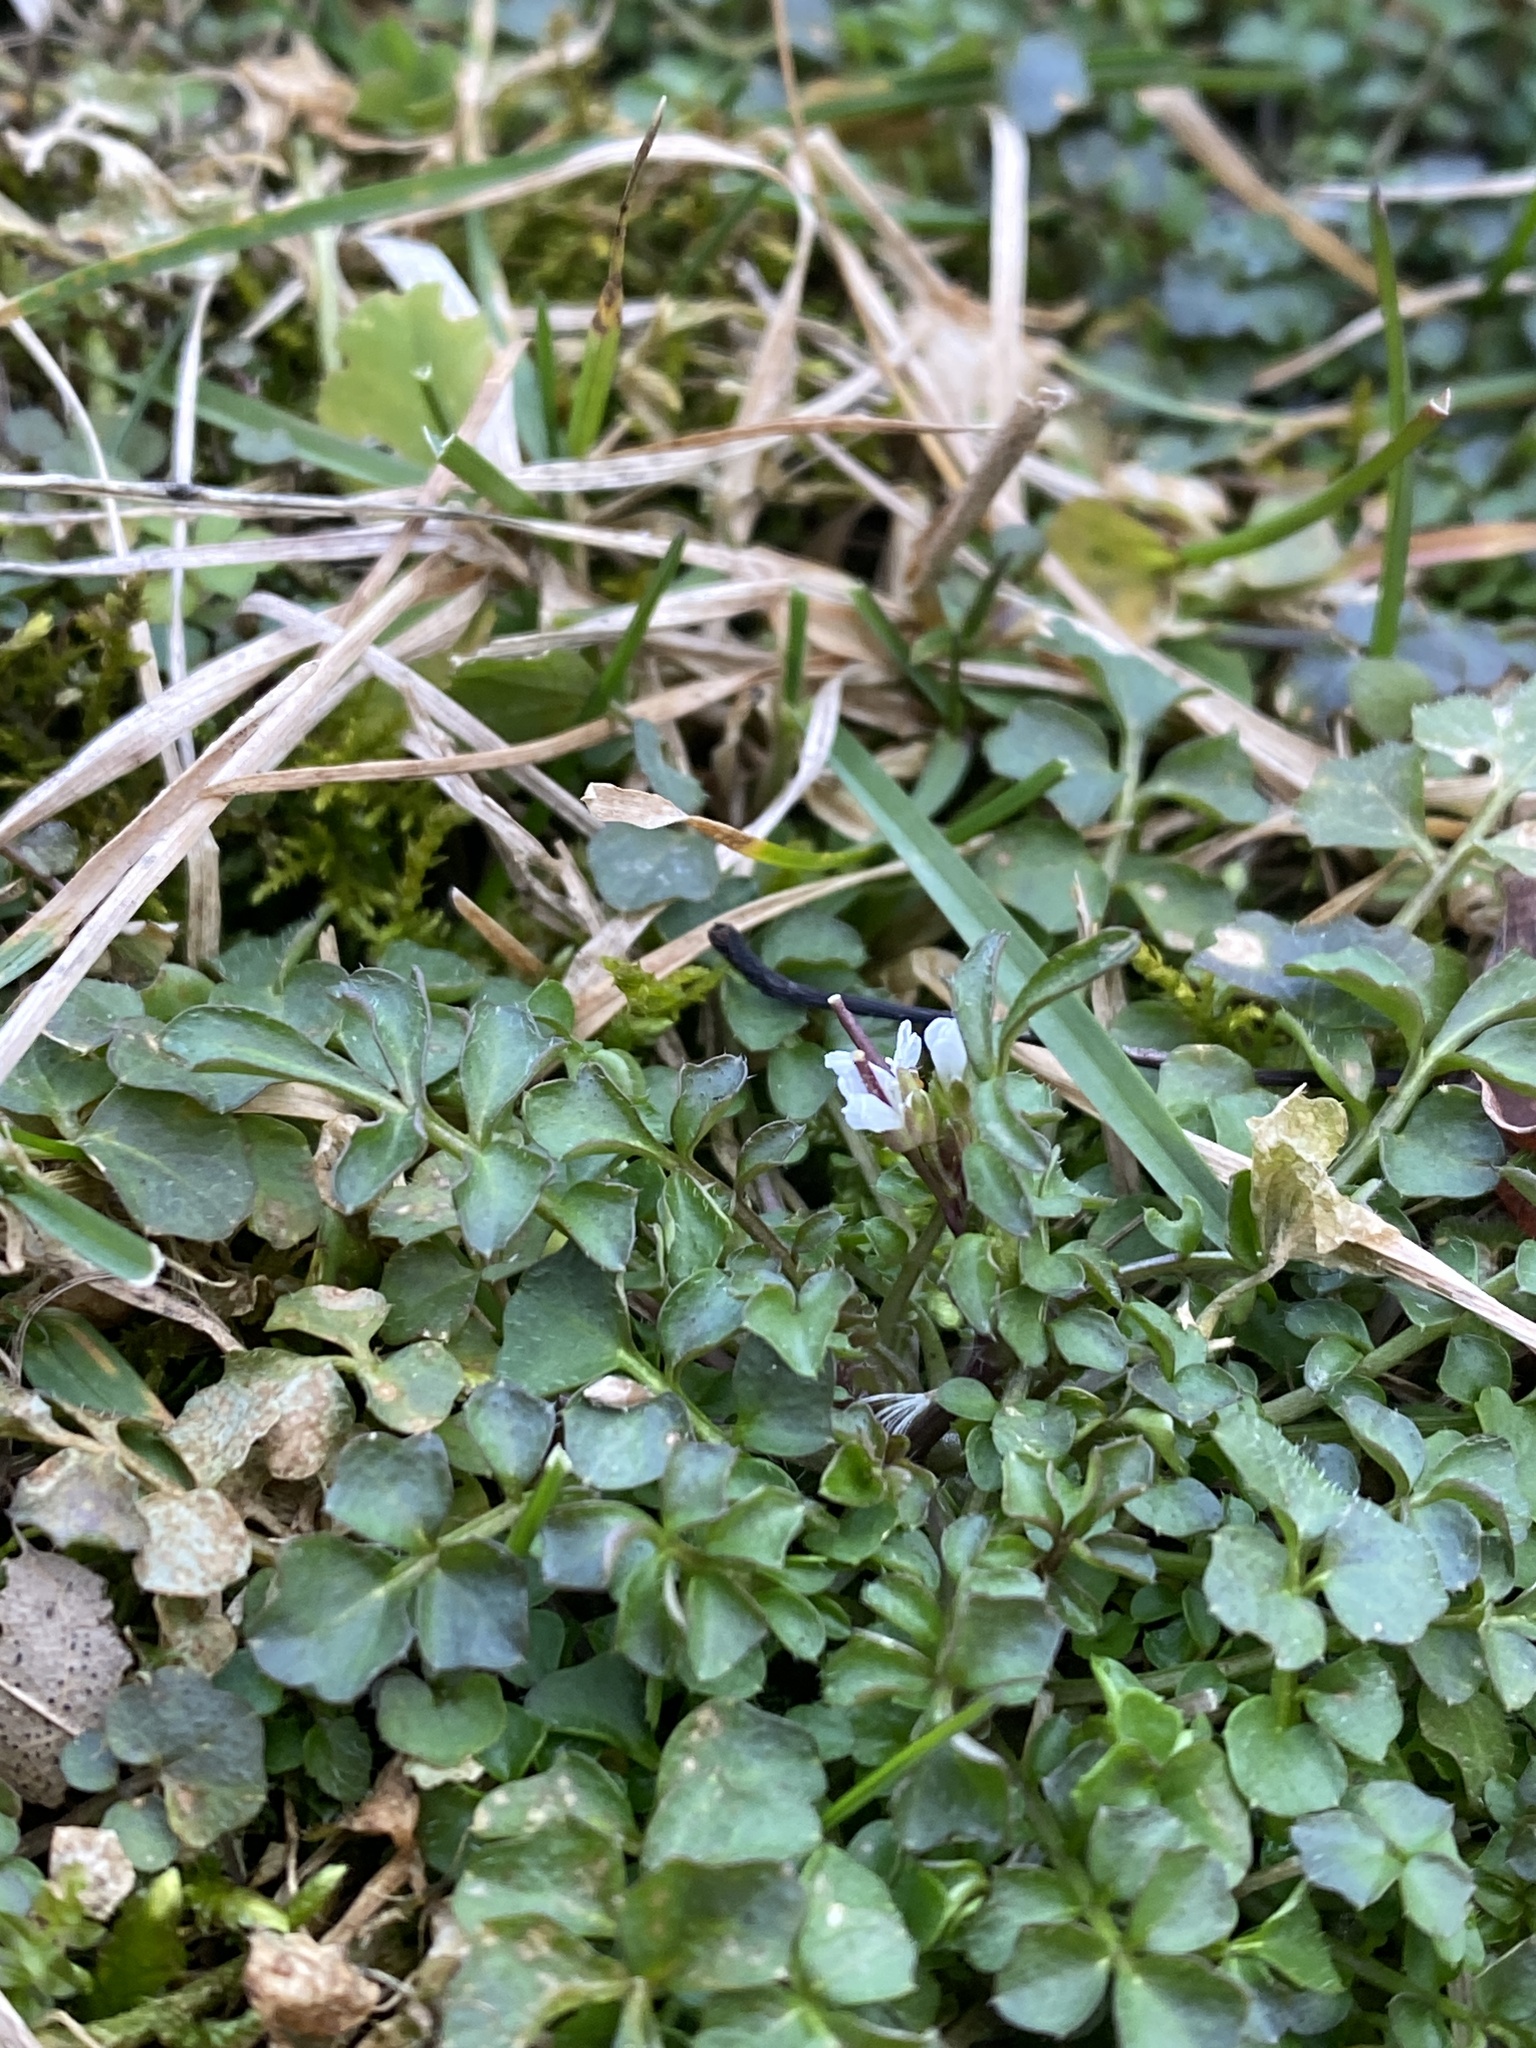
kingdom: Plantae
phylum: Tracheophyta
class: Magnoliopsida
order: Brassicales
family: Brassicaceae
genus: Cardamine
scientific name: Cardamine hirsuta
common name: Hairy bittercress
